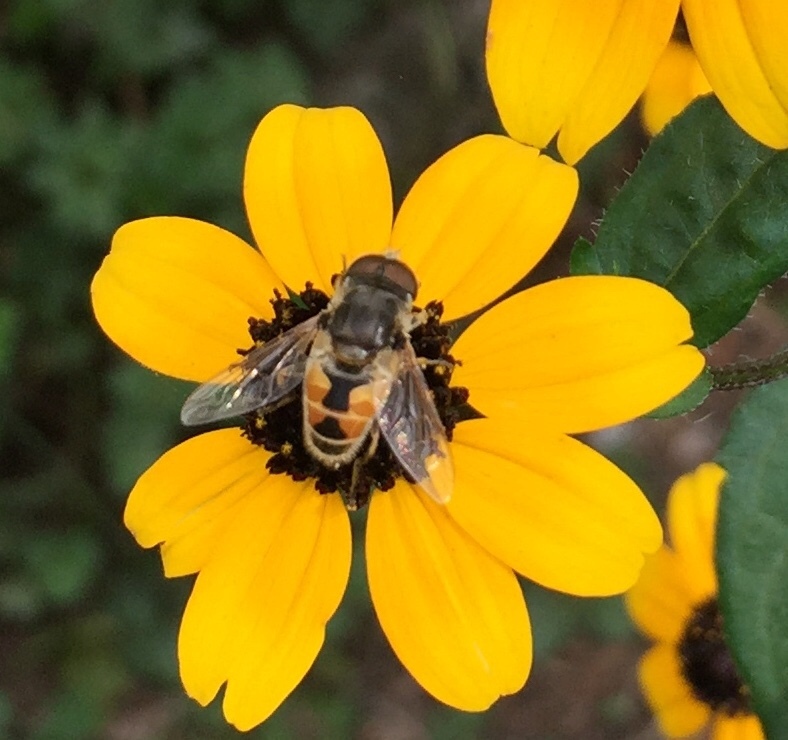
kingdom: Animalia
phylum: Arthropoda
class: Insecta
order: Diptera
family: Syrphidae
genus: Eristalis
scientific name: Eristalis arbustorum
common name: Hover fly
